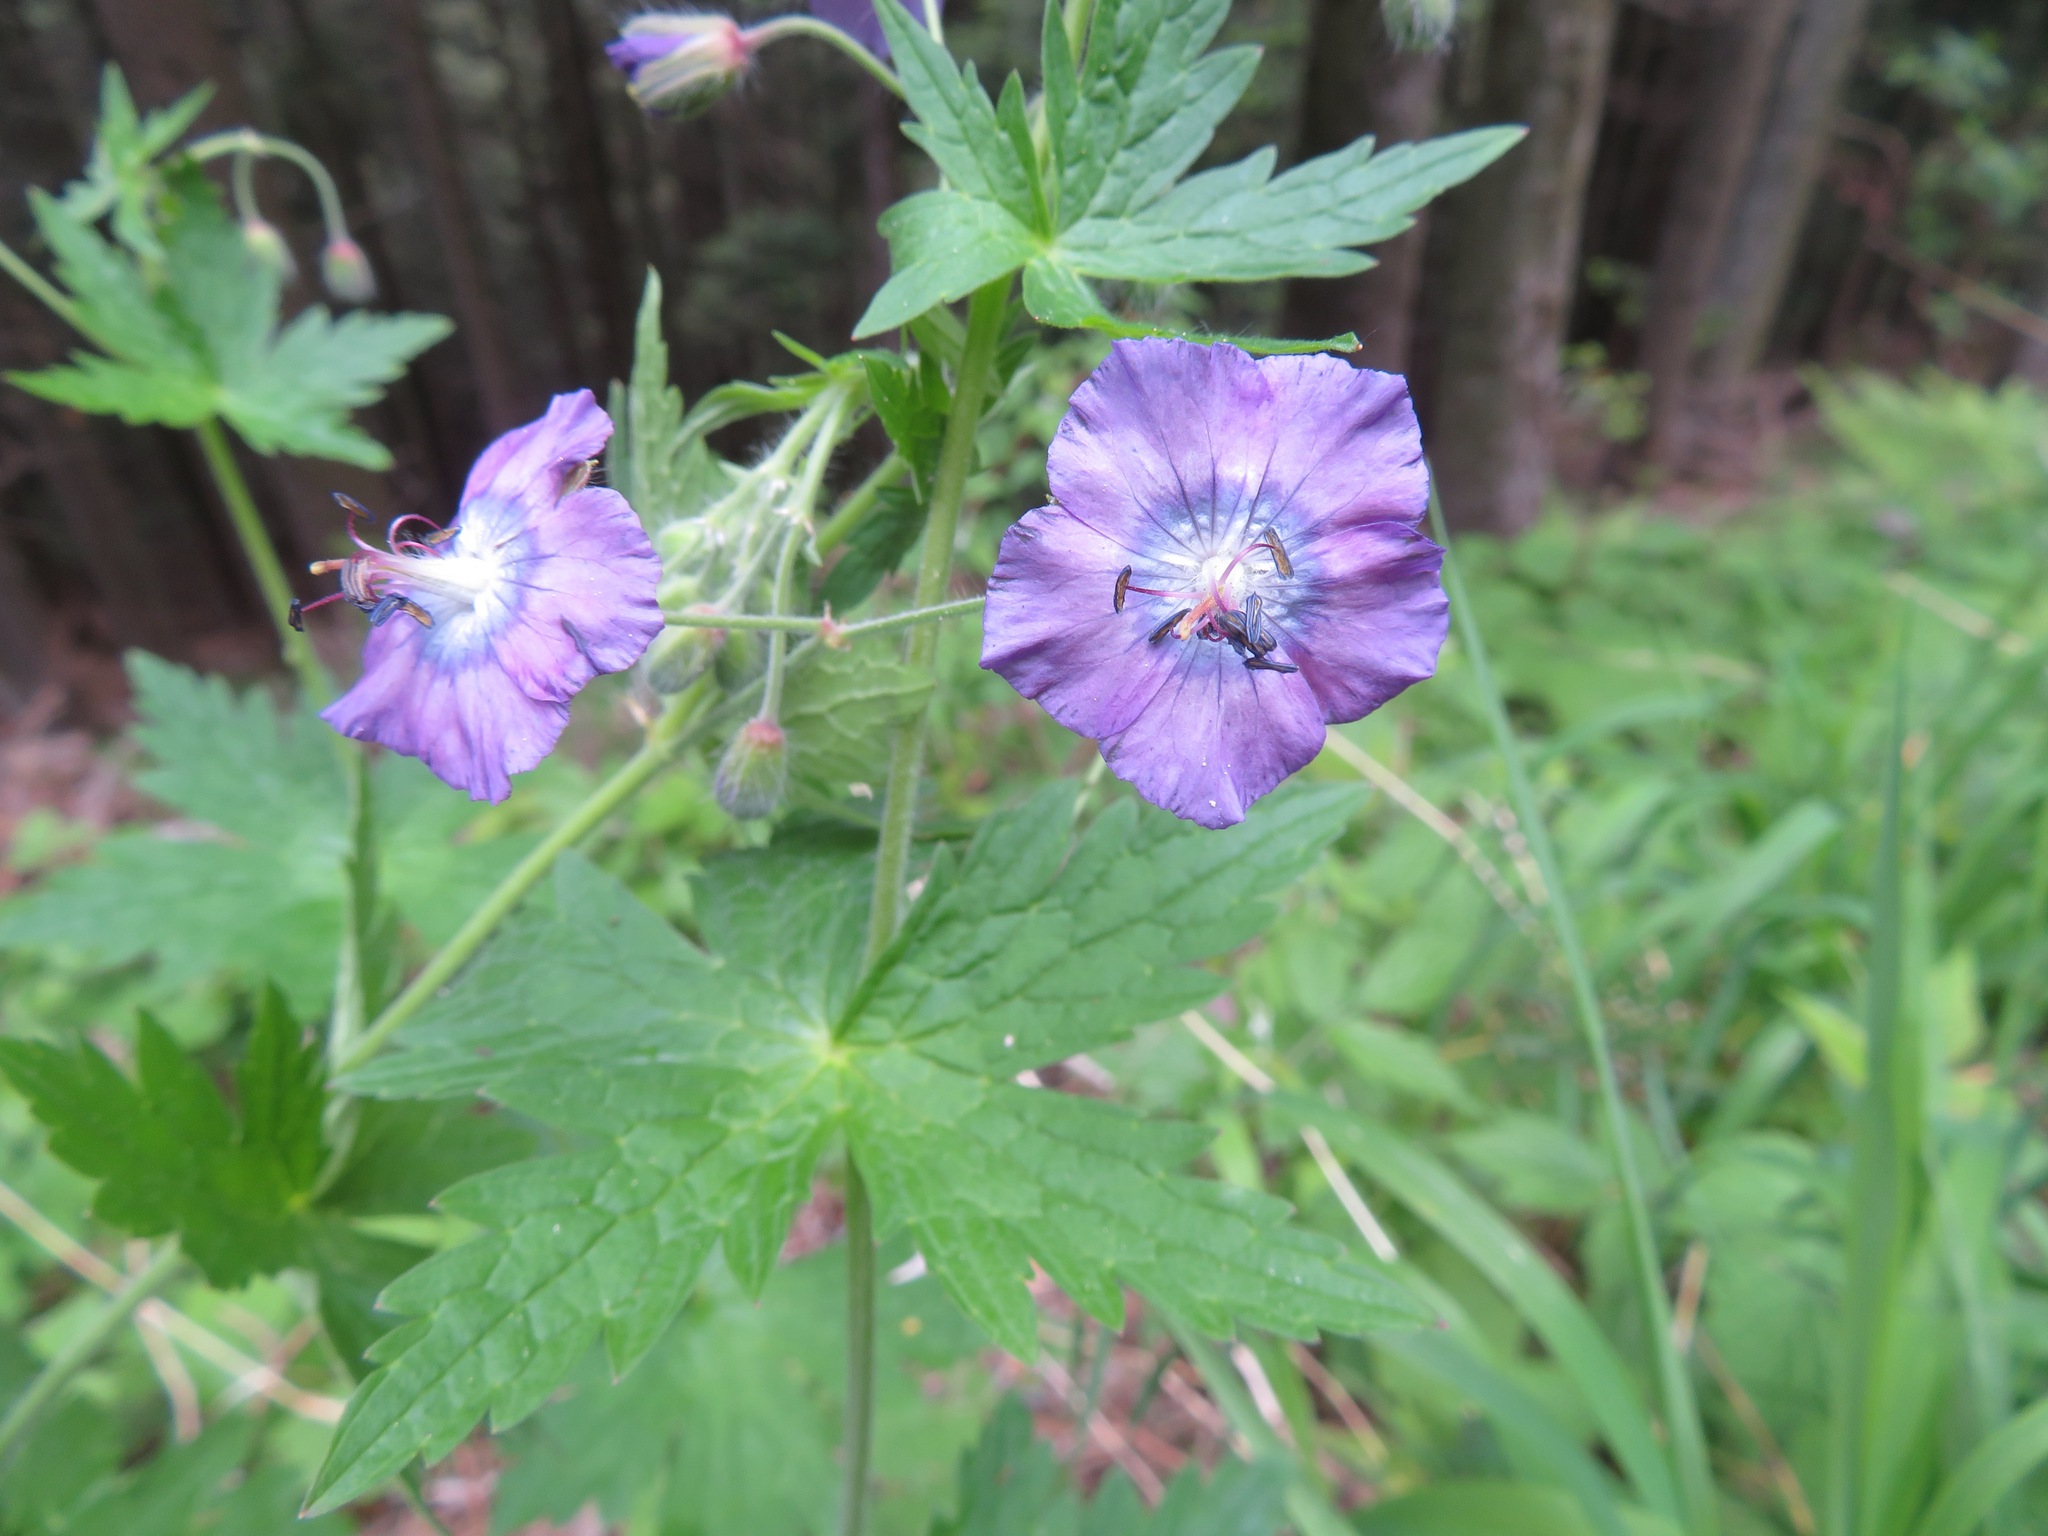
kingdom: Plantae
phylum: Tracheophyta
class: Magnoliopsida
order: Geraniales
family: Geraniaceae
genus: Geranium
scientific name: Geranium phaeum
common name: Dusky crane's-bill
